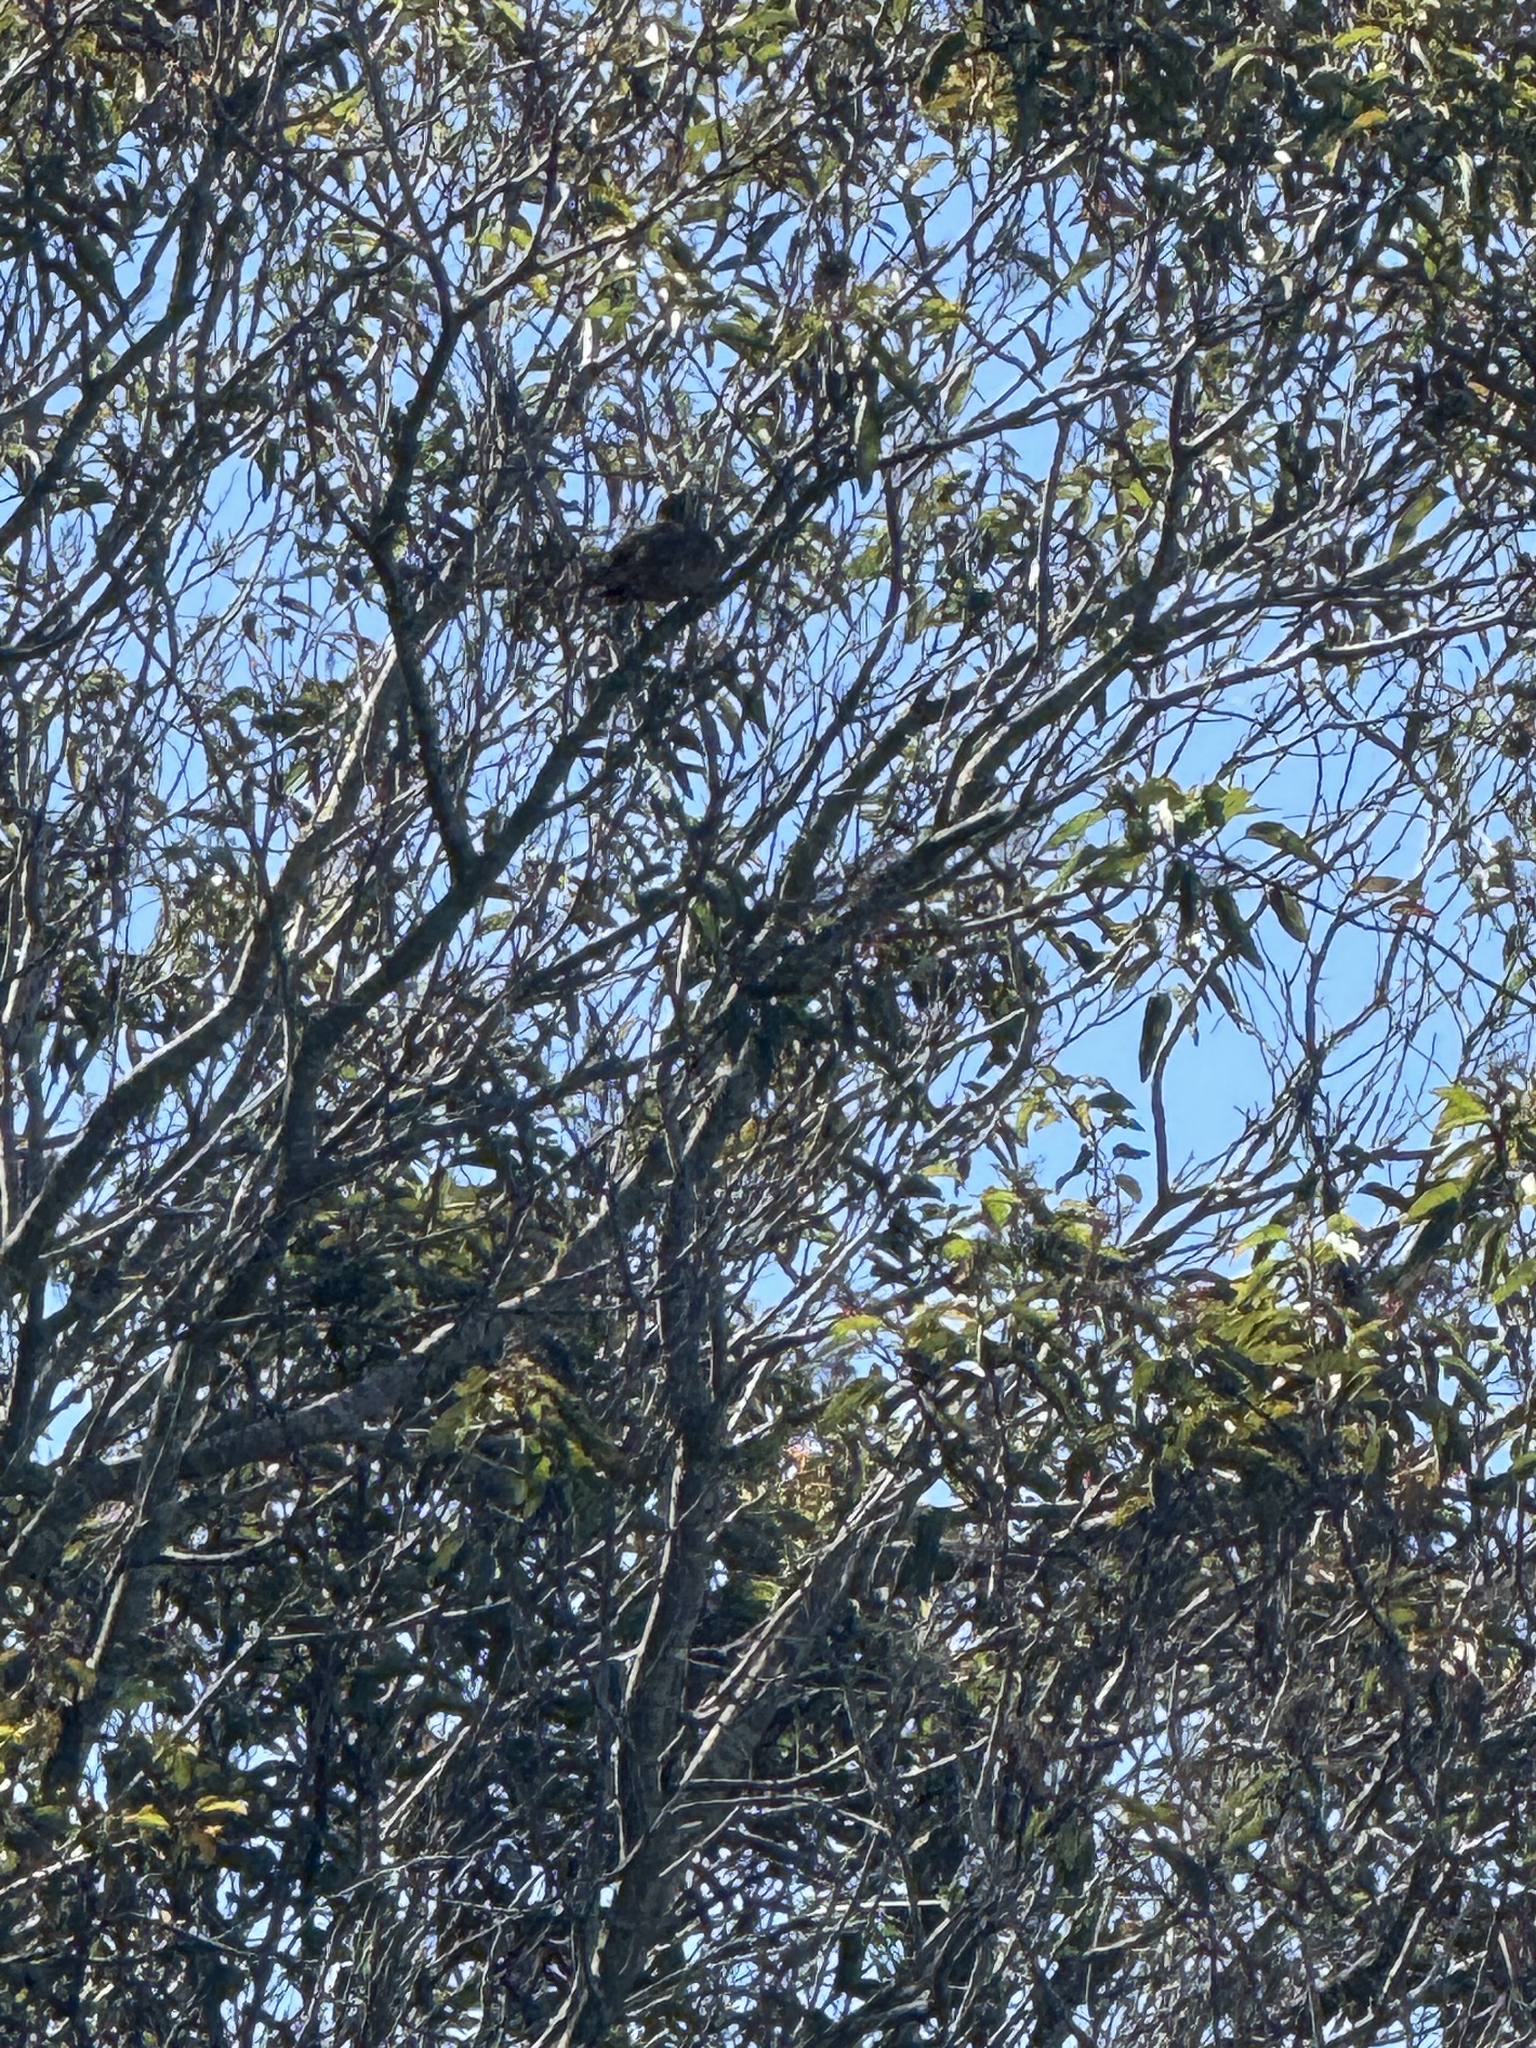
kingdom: Animalia
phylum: Chordata
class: Aves
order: Passeriformes
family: Mimidae
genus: Toxostoma
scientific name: Toxostoma redivivum
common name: California thrasher
